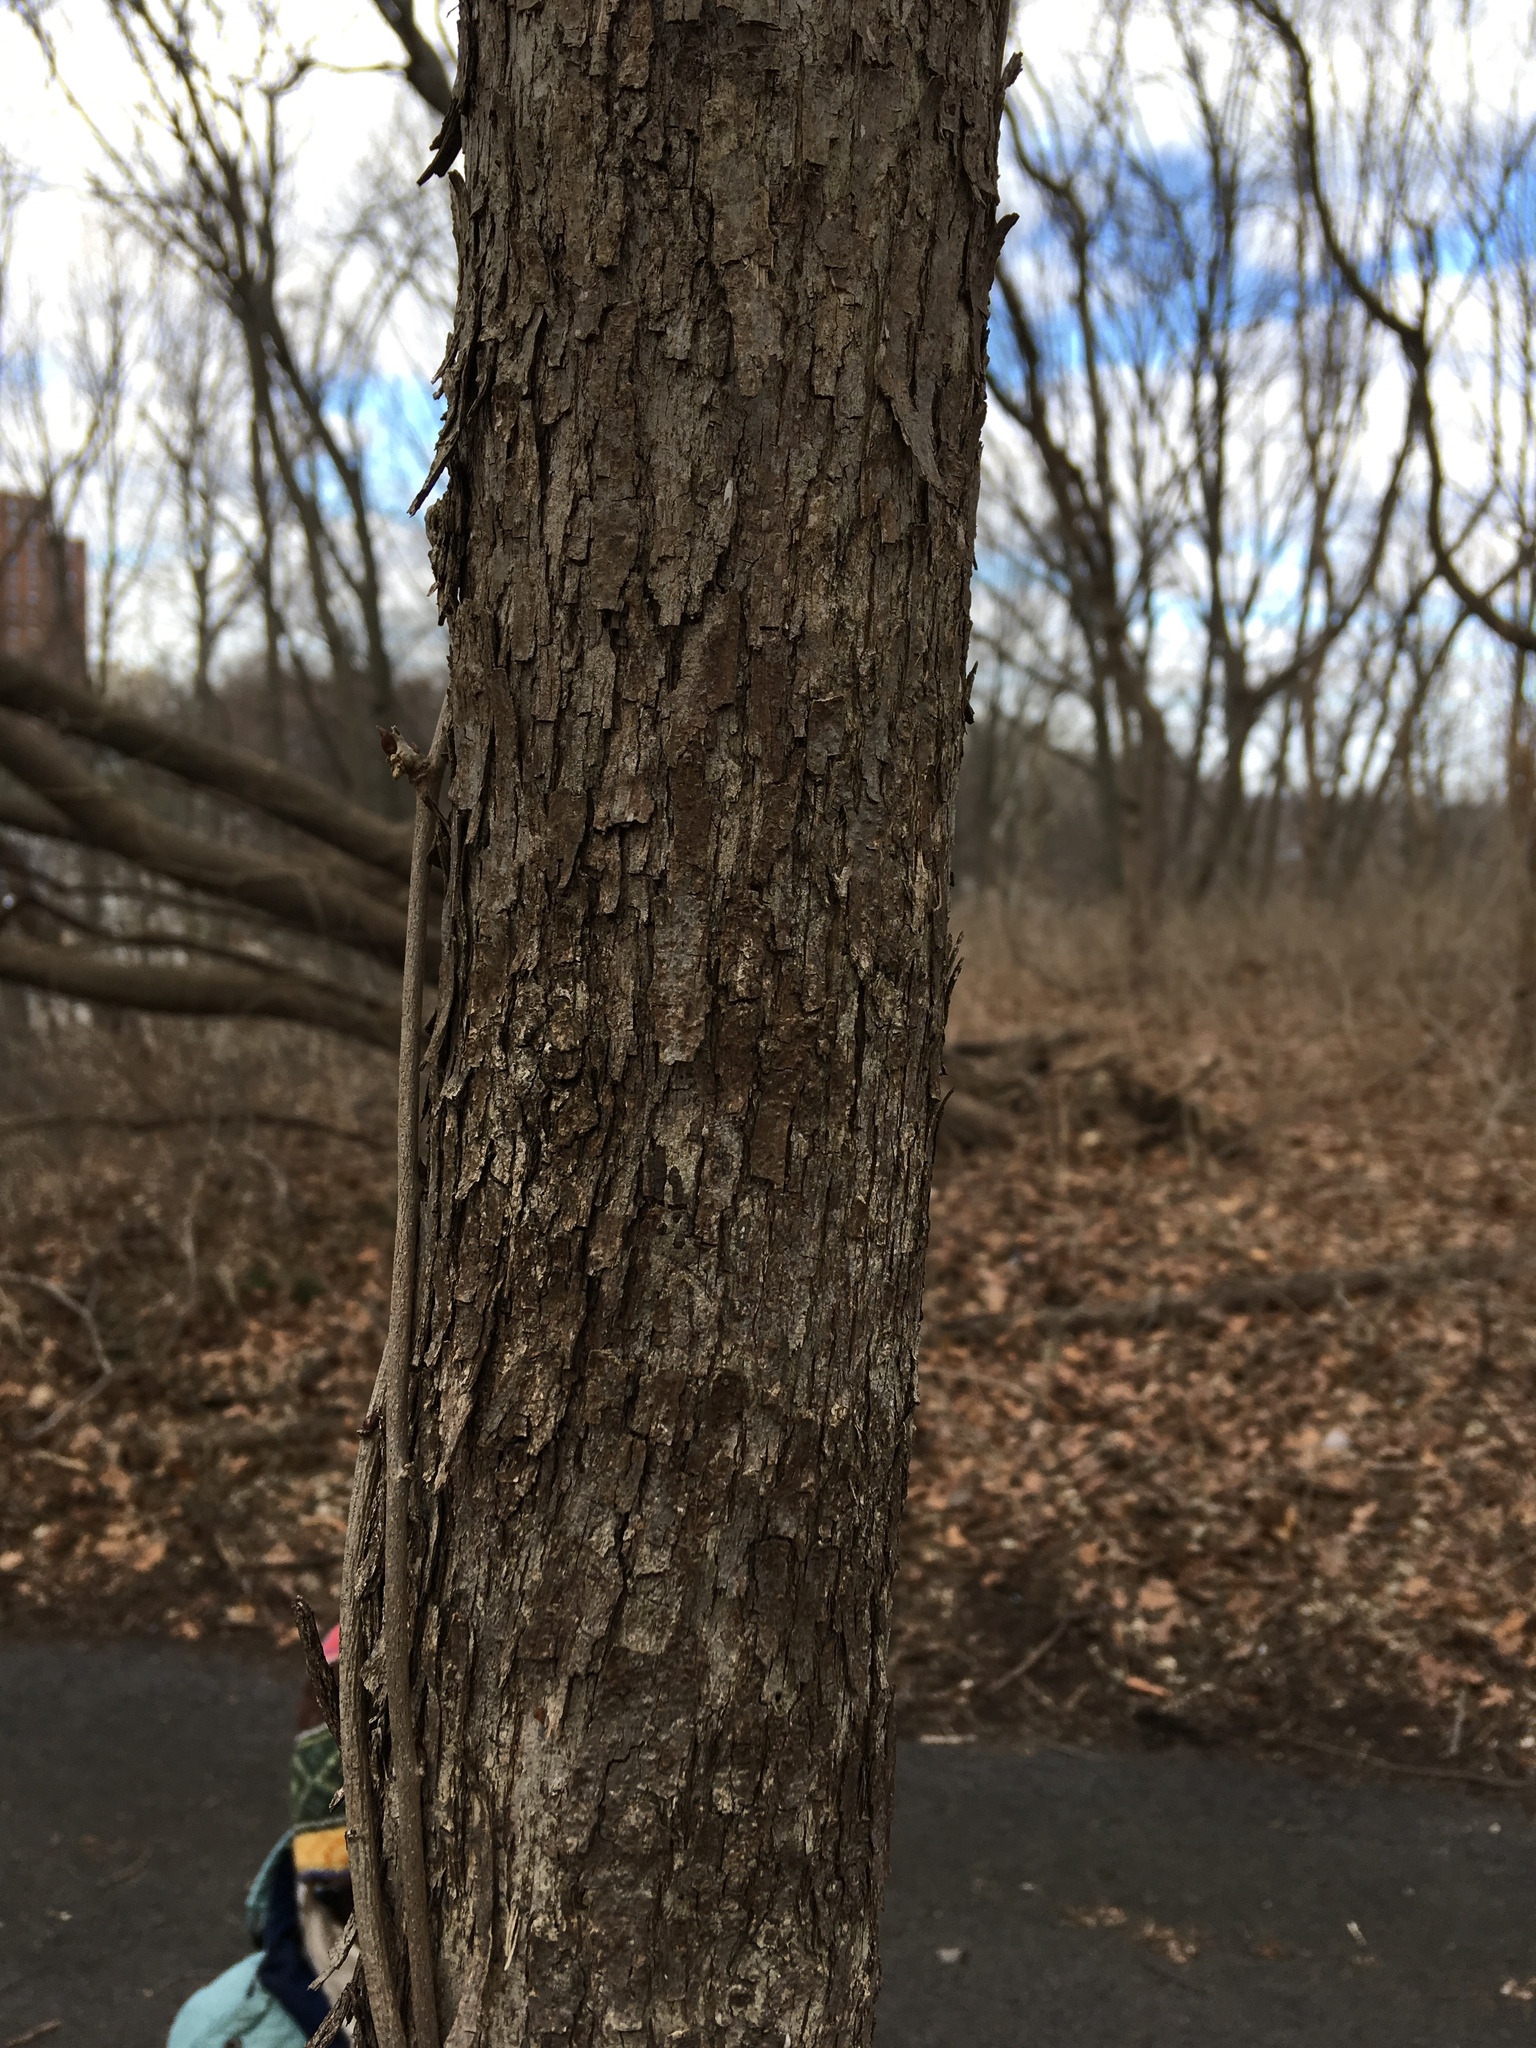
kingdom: Plantae
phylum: Tracheophyta
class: Magnoliopsida
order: Fagales
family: Betulaceae
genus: Ostrya
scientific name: Ostrya virginiana
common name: Ironwood
